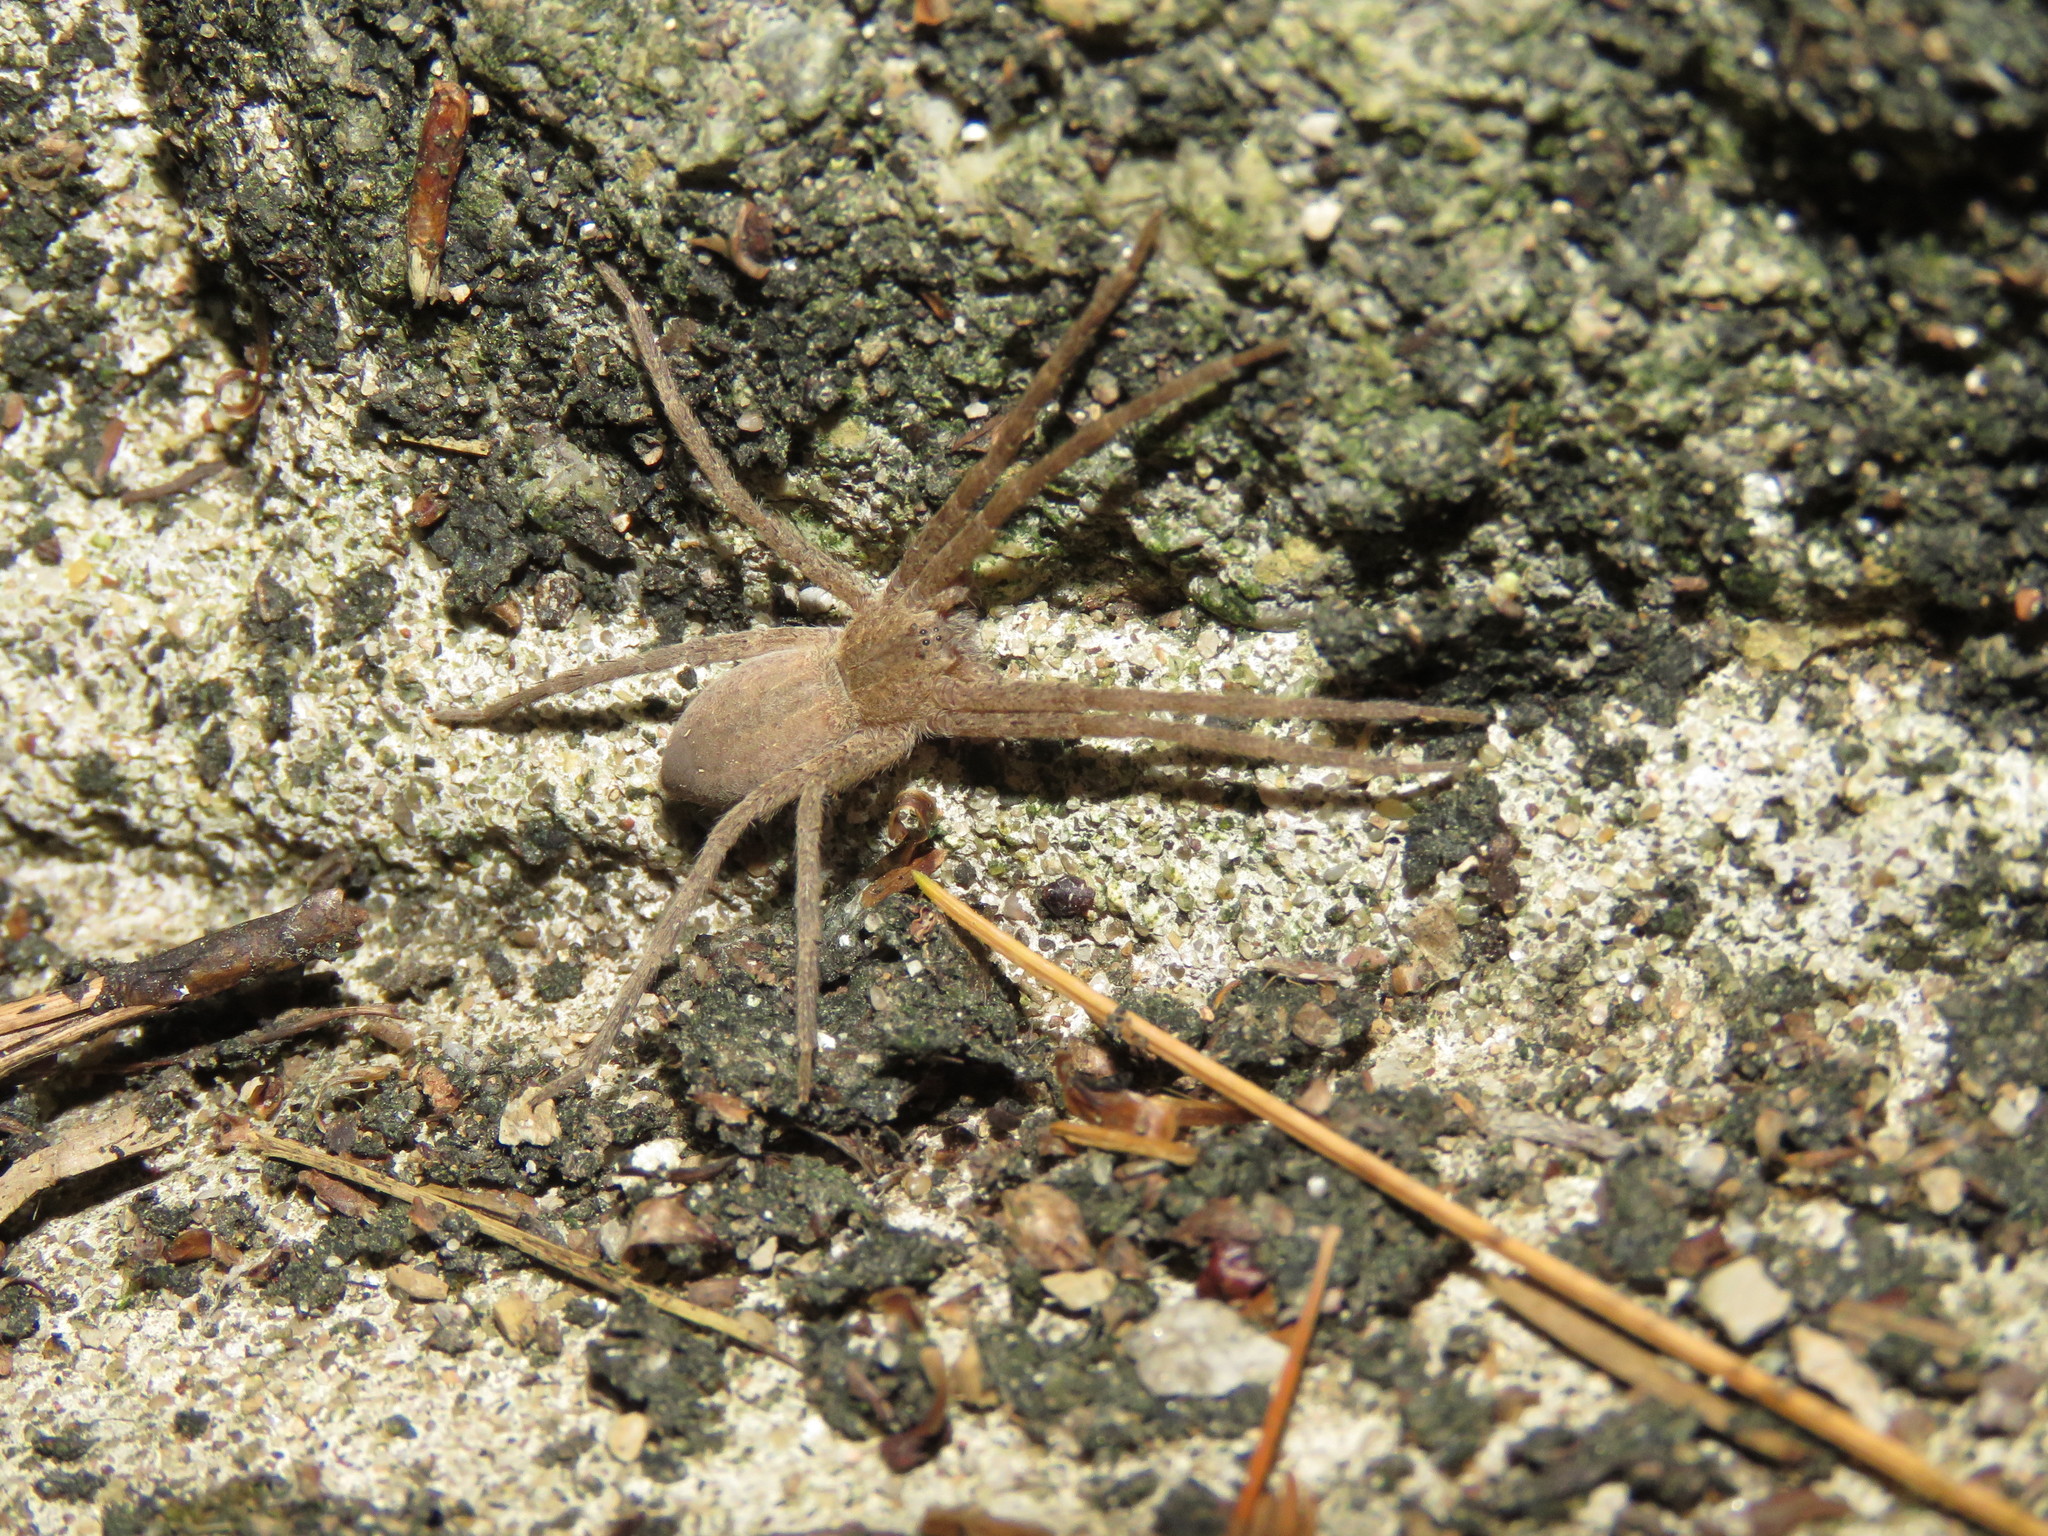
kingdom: Animalia
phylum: Arthropoda
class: Arachnida
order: Araneae
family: Pisauridae
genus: Pisaurina
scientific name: Pisaurina mira
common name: American nursery web spider
